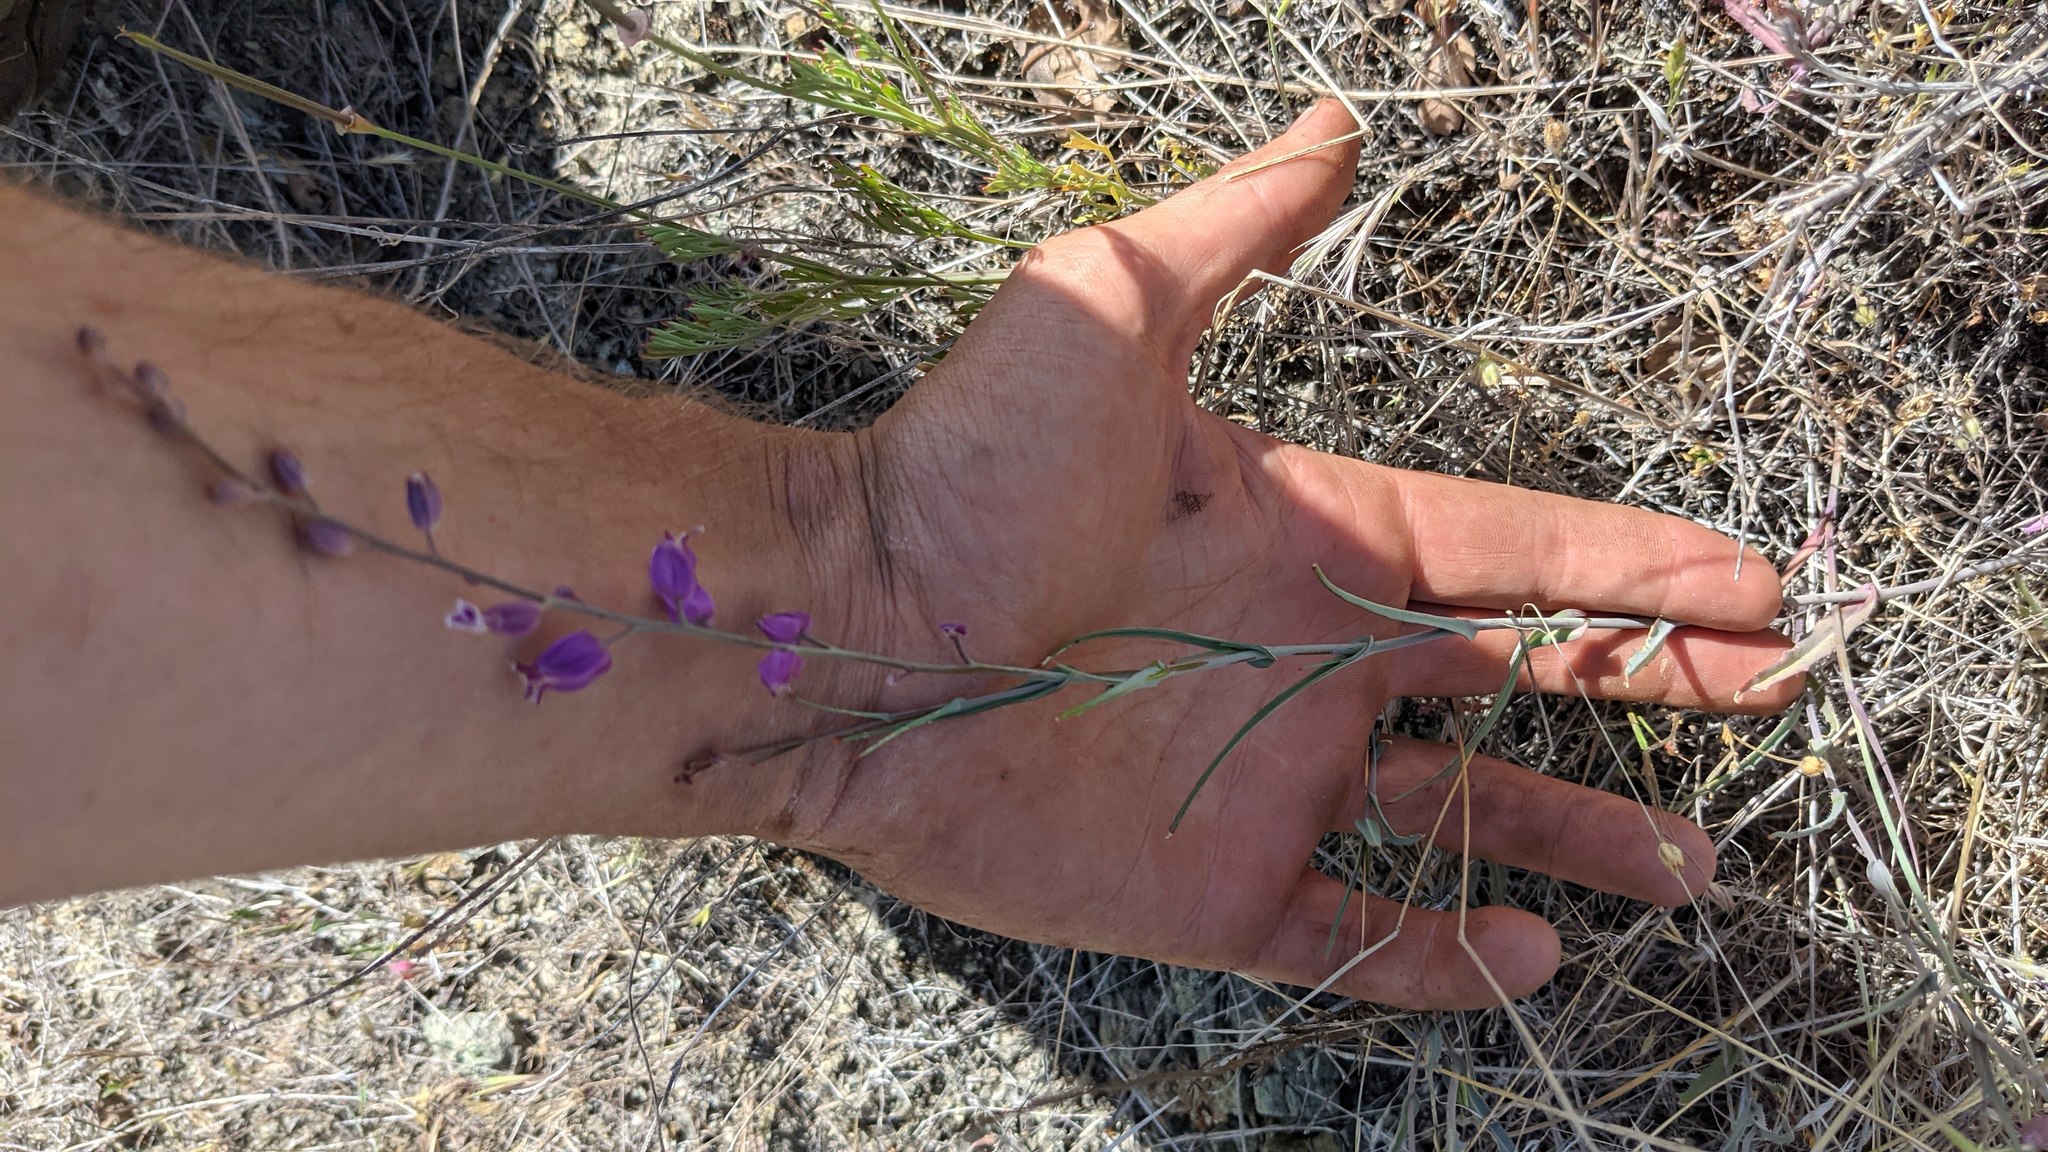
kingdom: Plantae
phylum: Tracheophyta
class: Magnoliopsida
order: Brassicales
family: Brassicaceae
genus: Streptanthus
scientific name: Streptanthus glandulosus
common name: Jewel-flower
